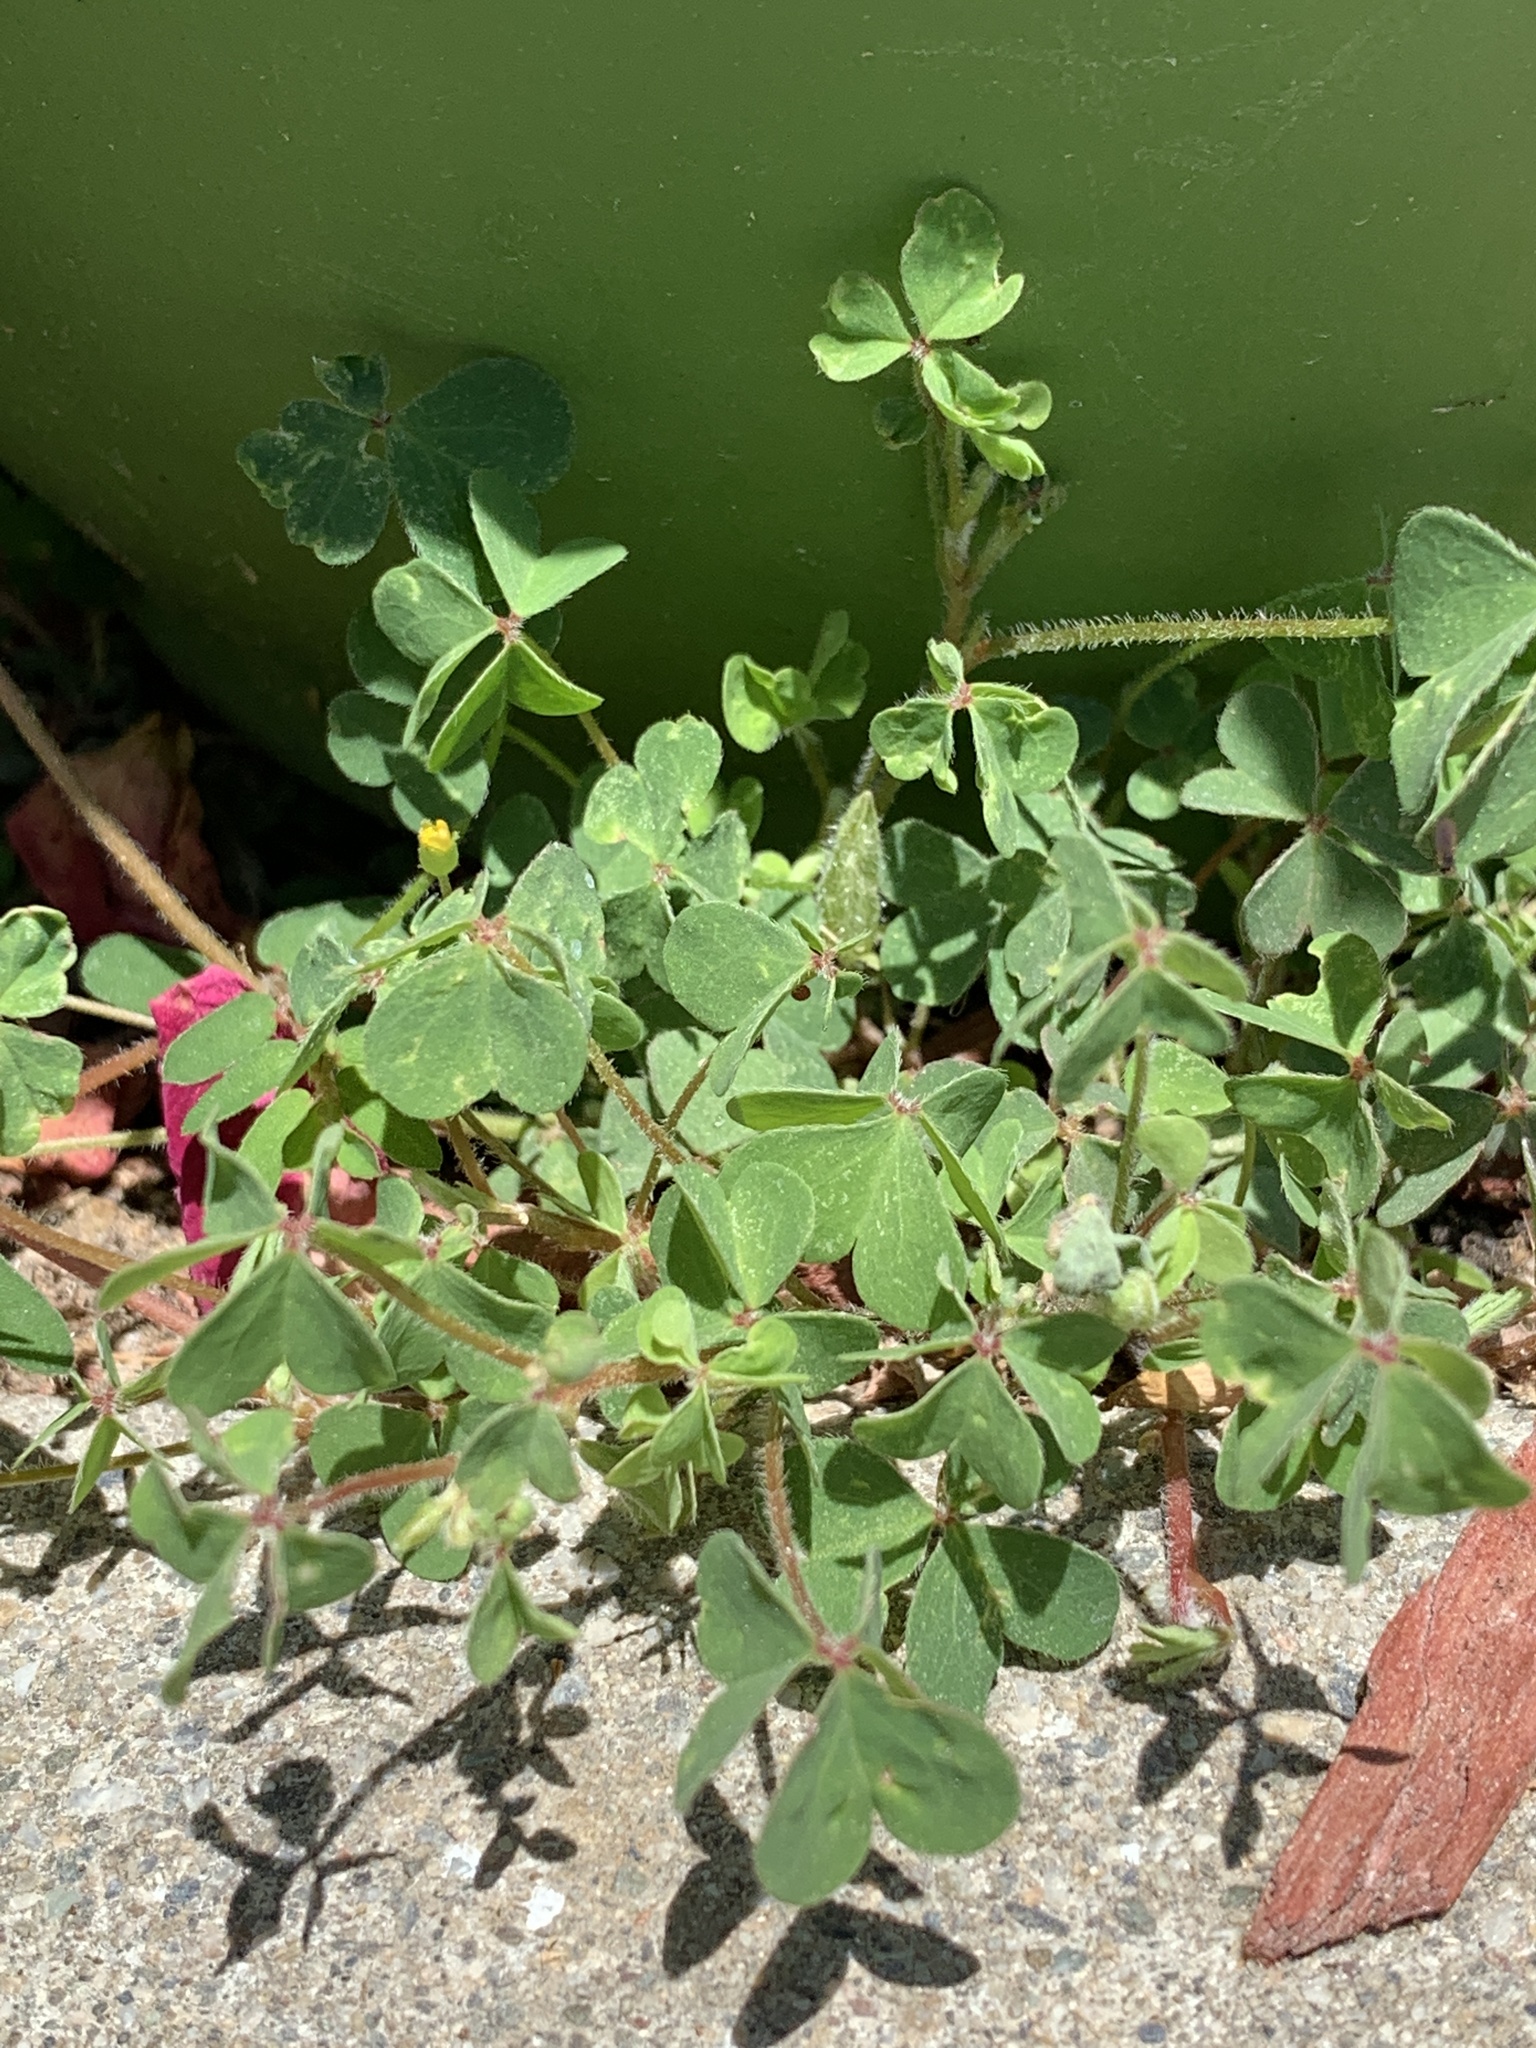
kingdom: Plantae
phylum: Tracheophyta
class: Magnoliopsida
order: Oxalidales
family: Oxalidaceae
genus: Oxalis
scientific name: Oxalis corniculata
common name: Procumbent yellow-sorrel
